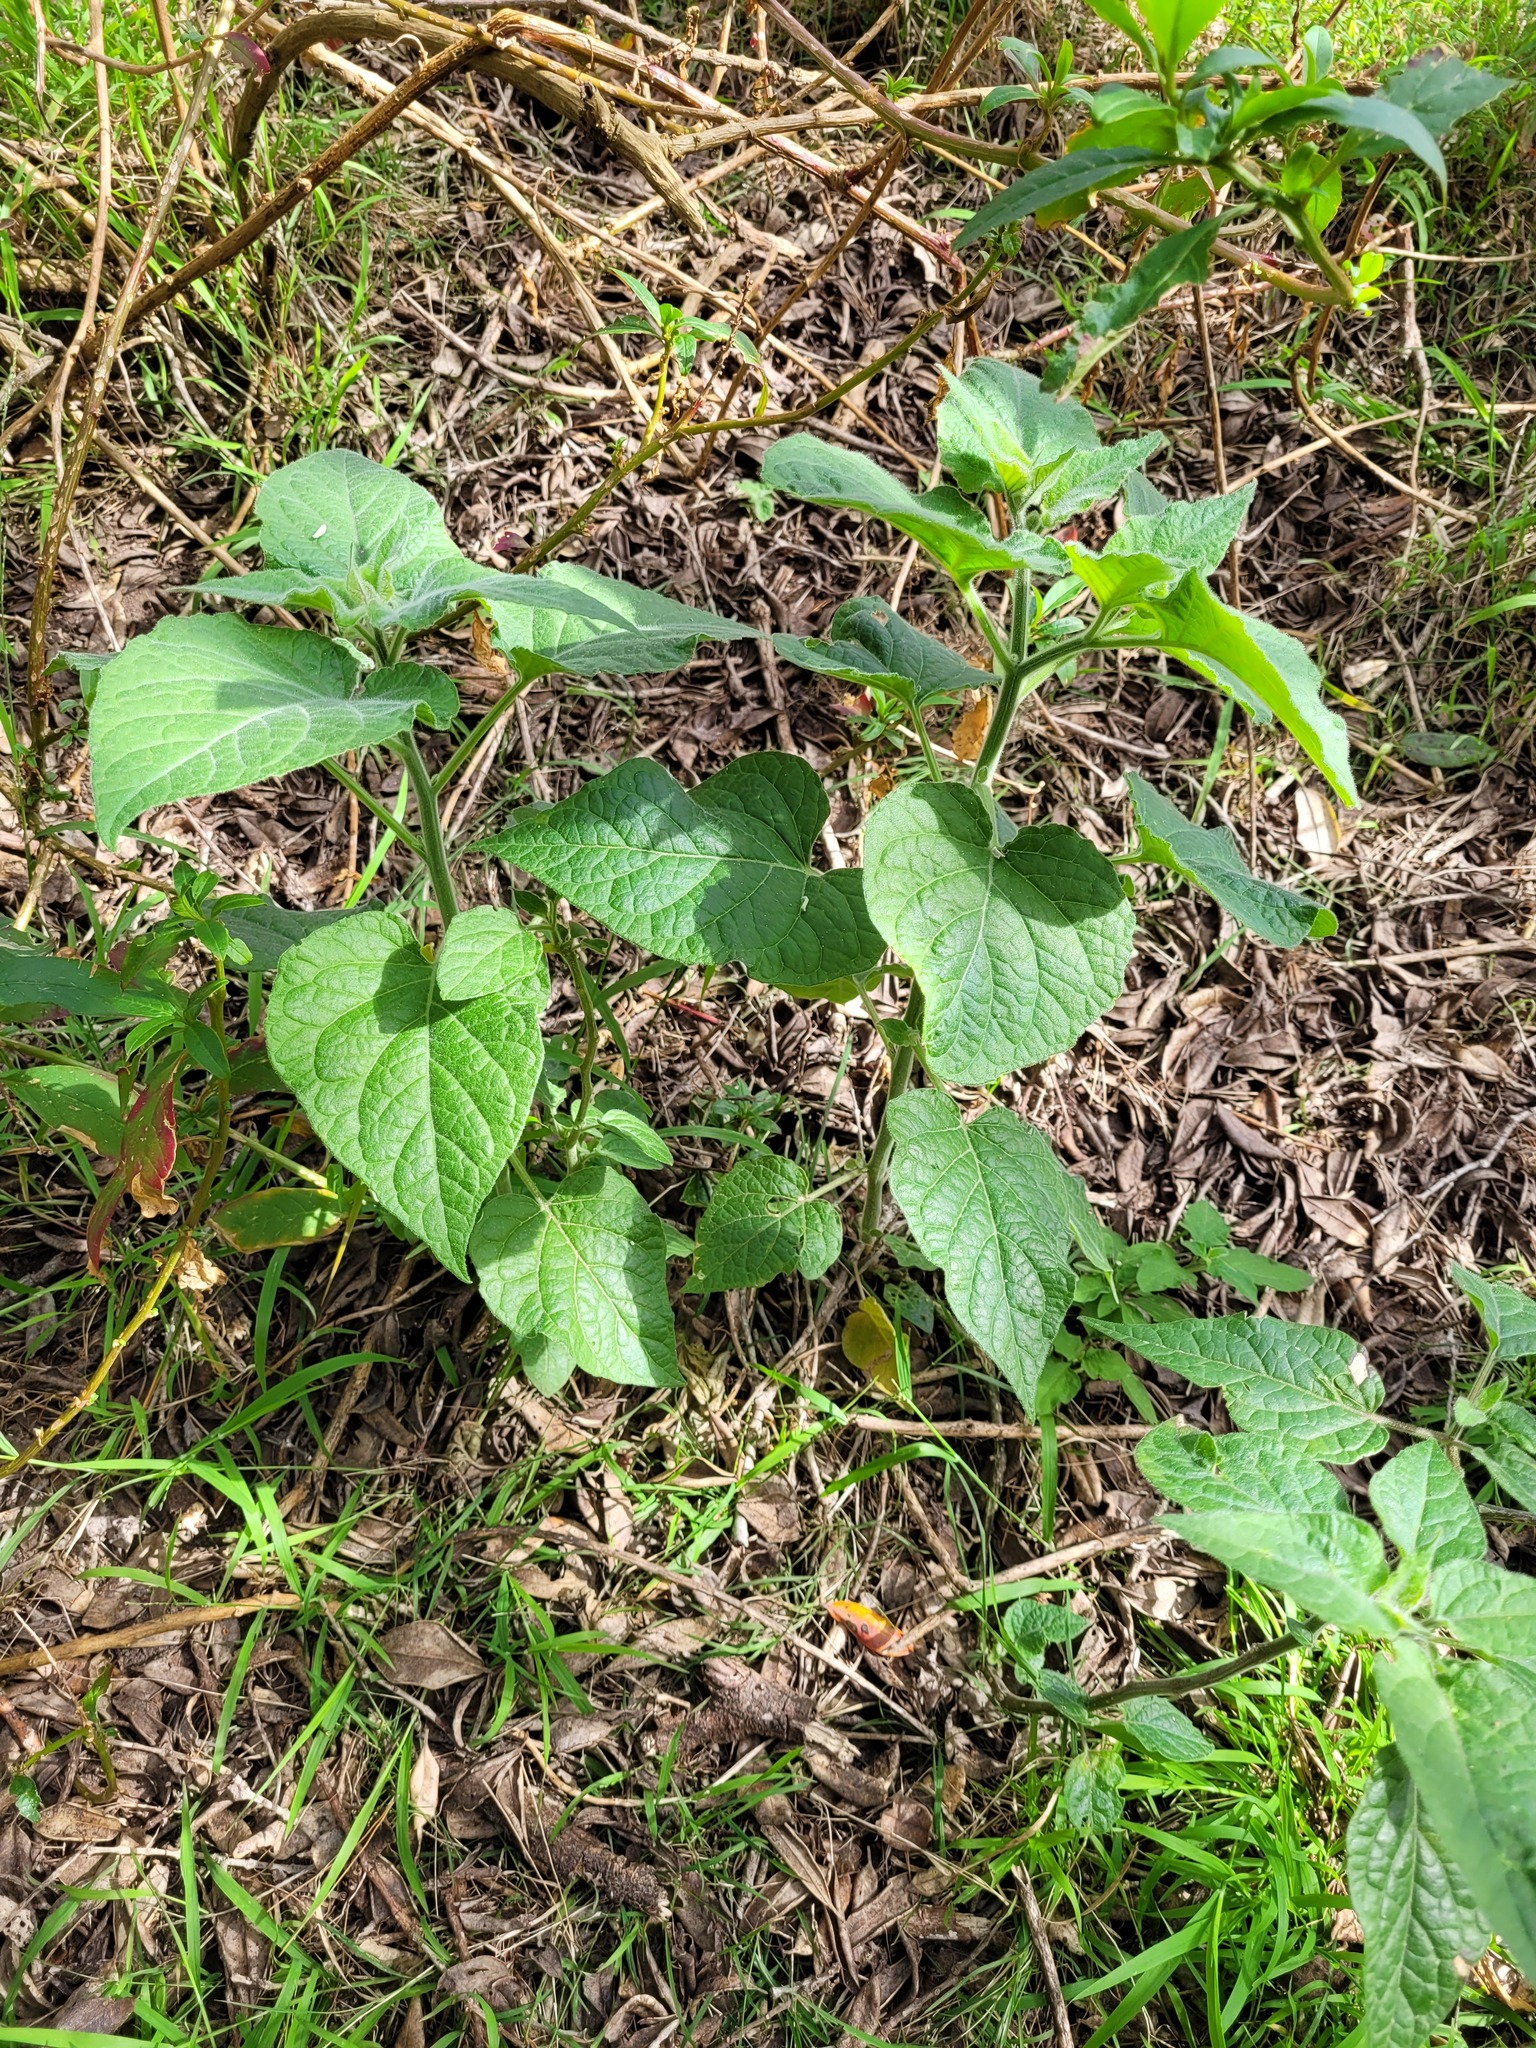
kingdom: Plantae
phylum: Tracheophyta
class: Magnoliopsida
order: Solanales
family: Solanaceae
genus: Physalis
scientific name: Physalis peruviana
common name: Cape-gooseberry
